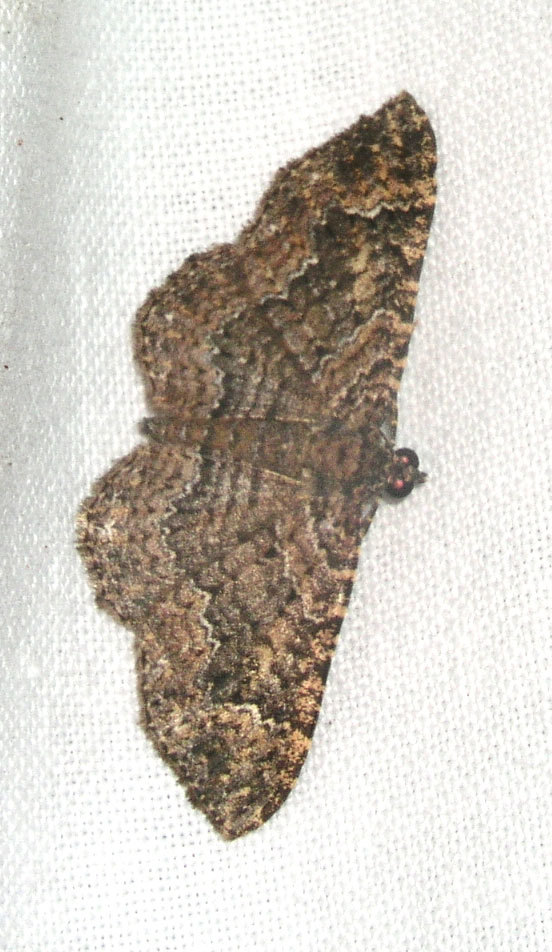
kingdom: Animalia
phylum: Arthropoda
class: Insecta
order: Lepidoptera
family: Geometridae
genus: Disclisioprocta
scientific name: Disclisioprocta stellata
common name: Somber carpet
